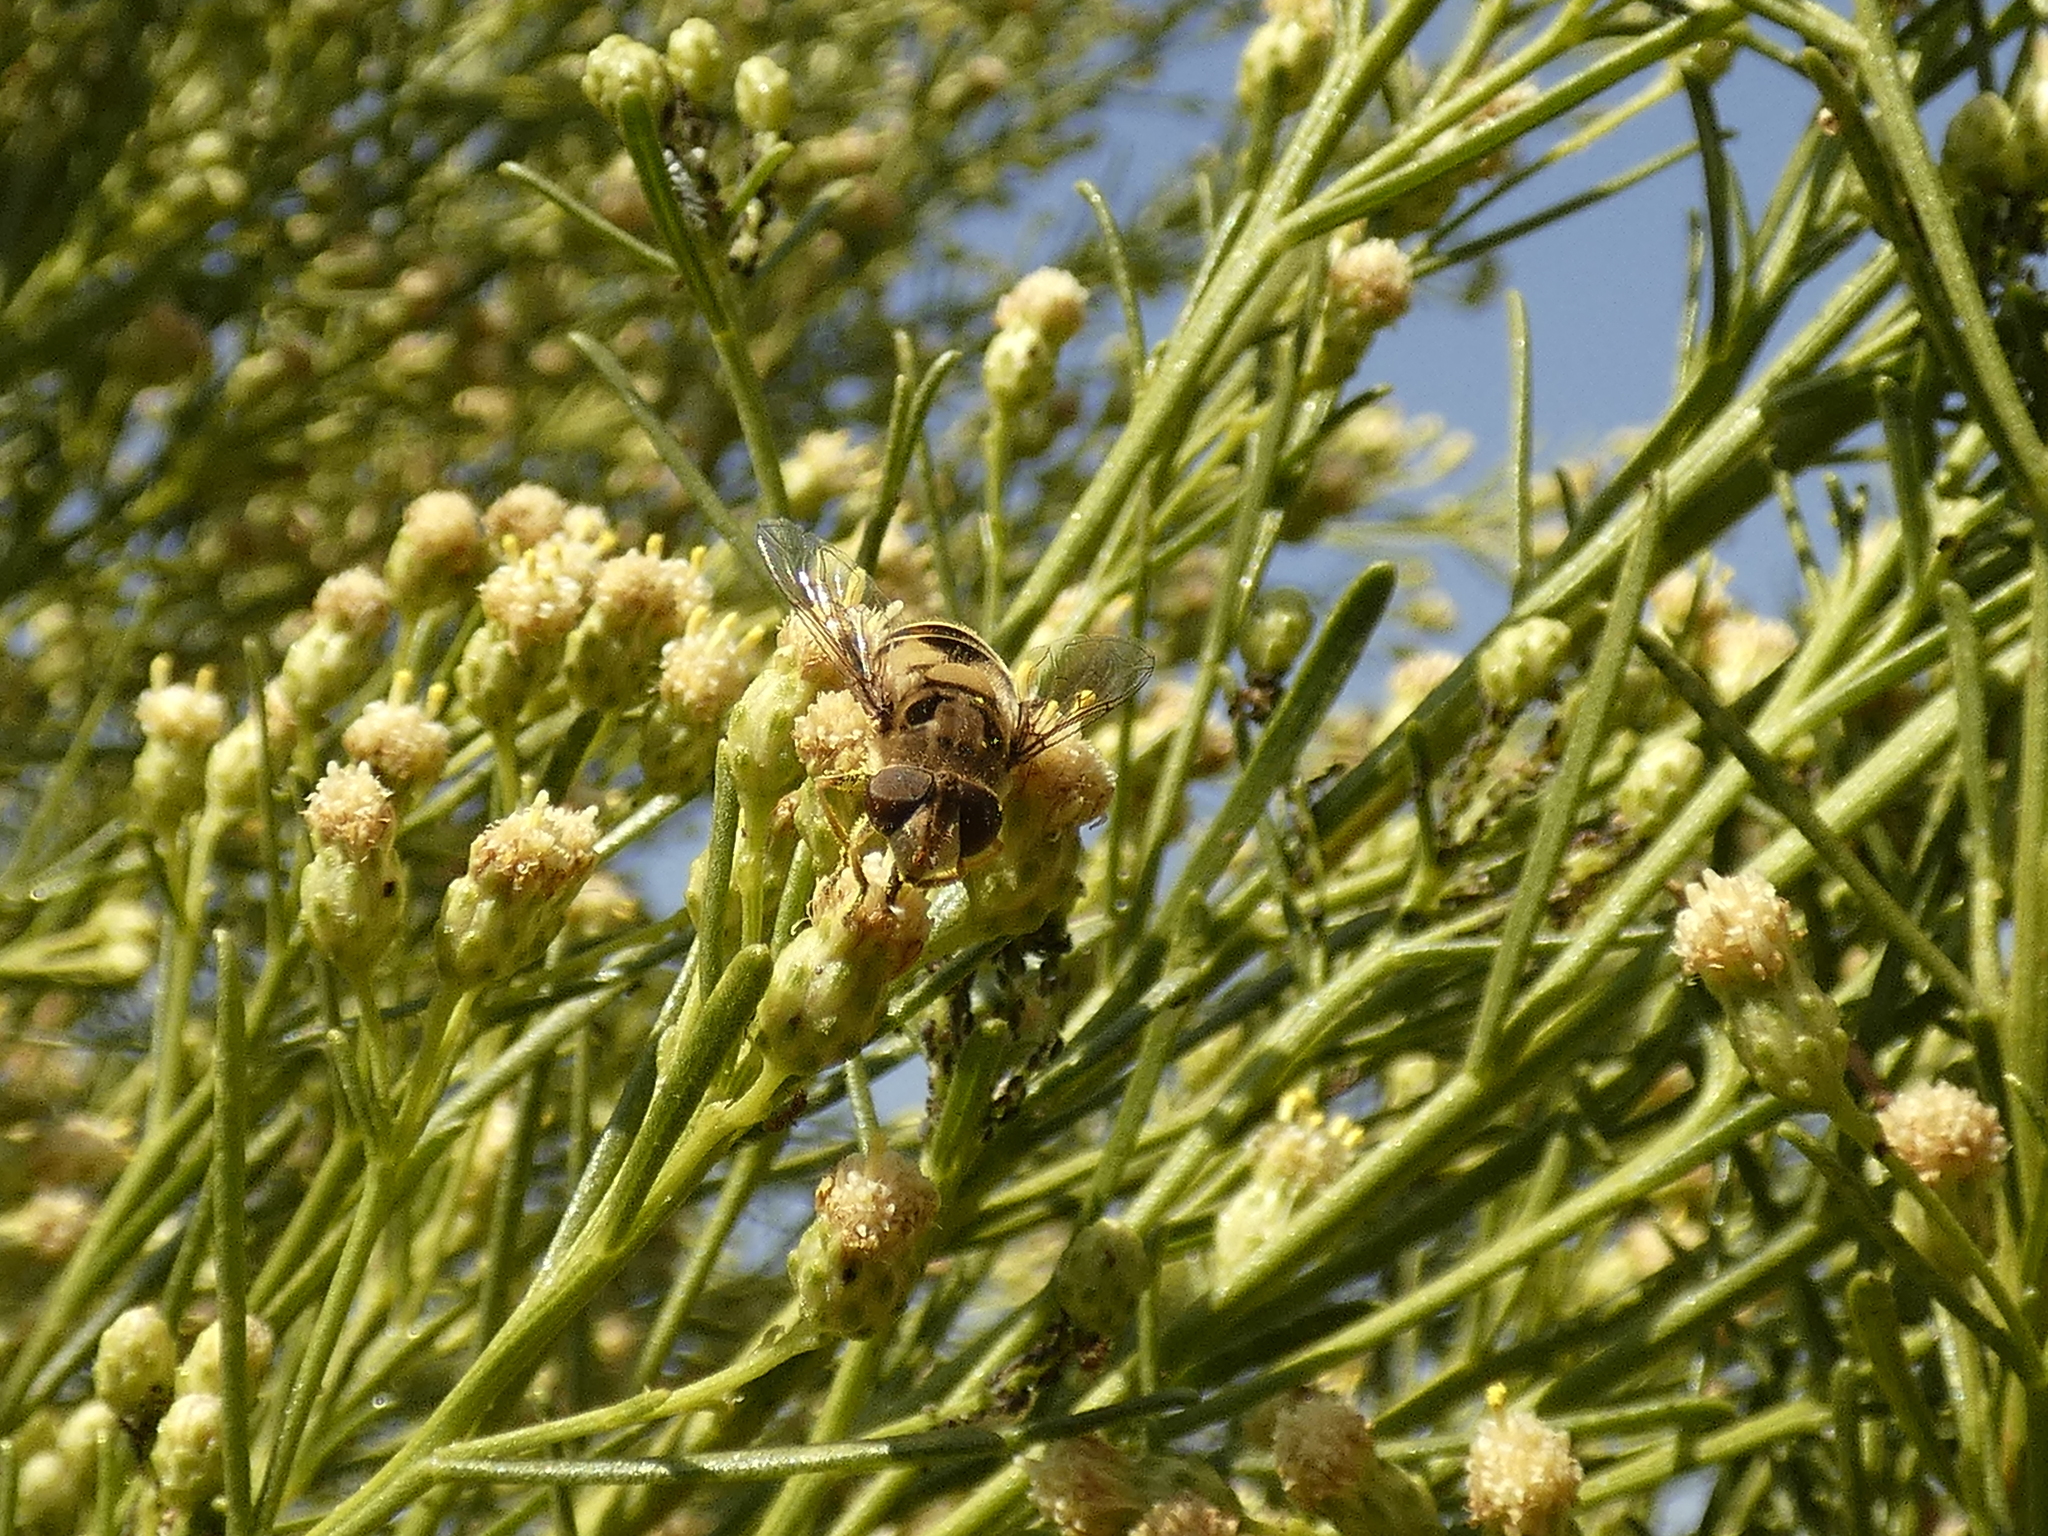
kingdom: Animalia
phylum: Arthropoda
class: Insecta
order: Diptera
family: Syrphidae
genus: Palpada
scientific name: Palpada elegans
